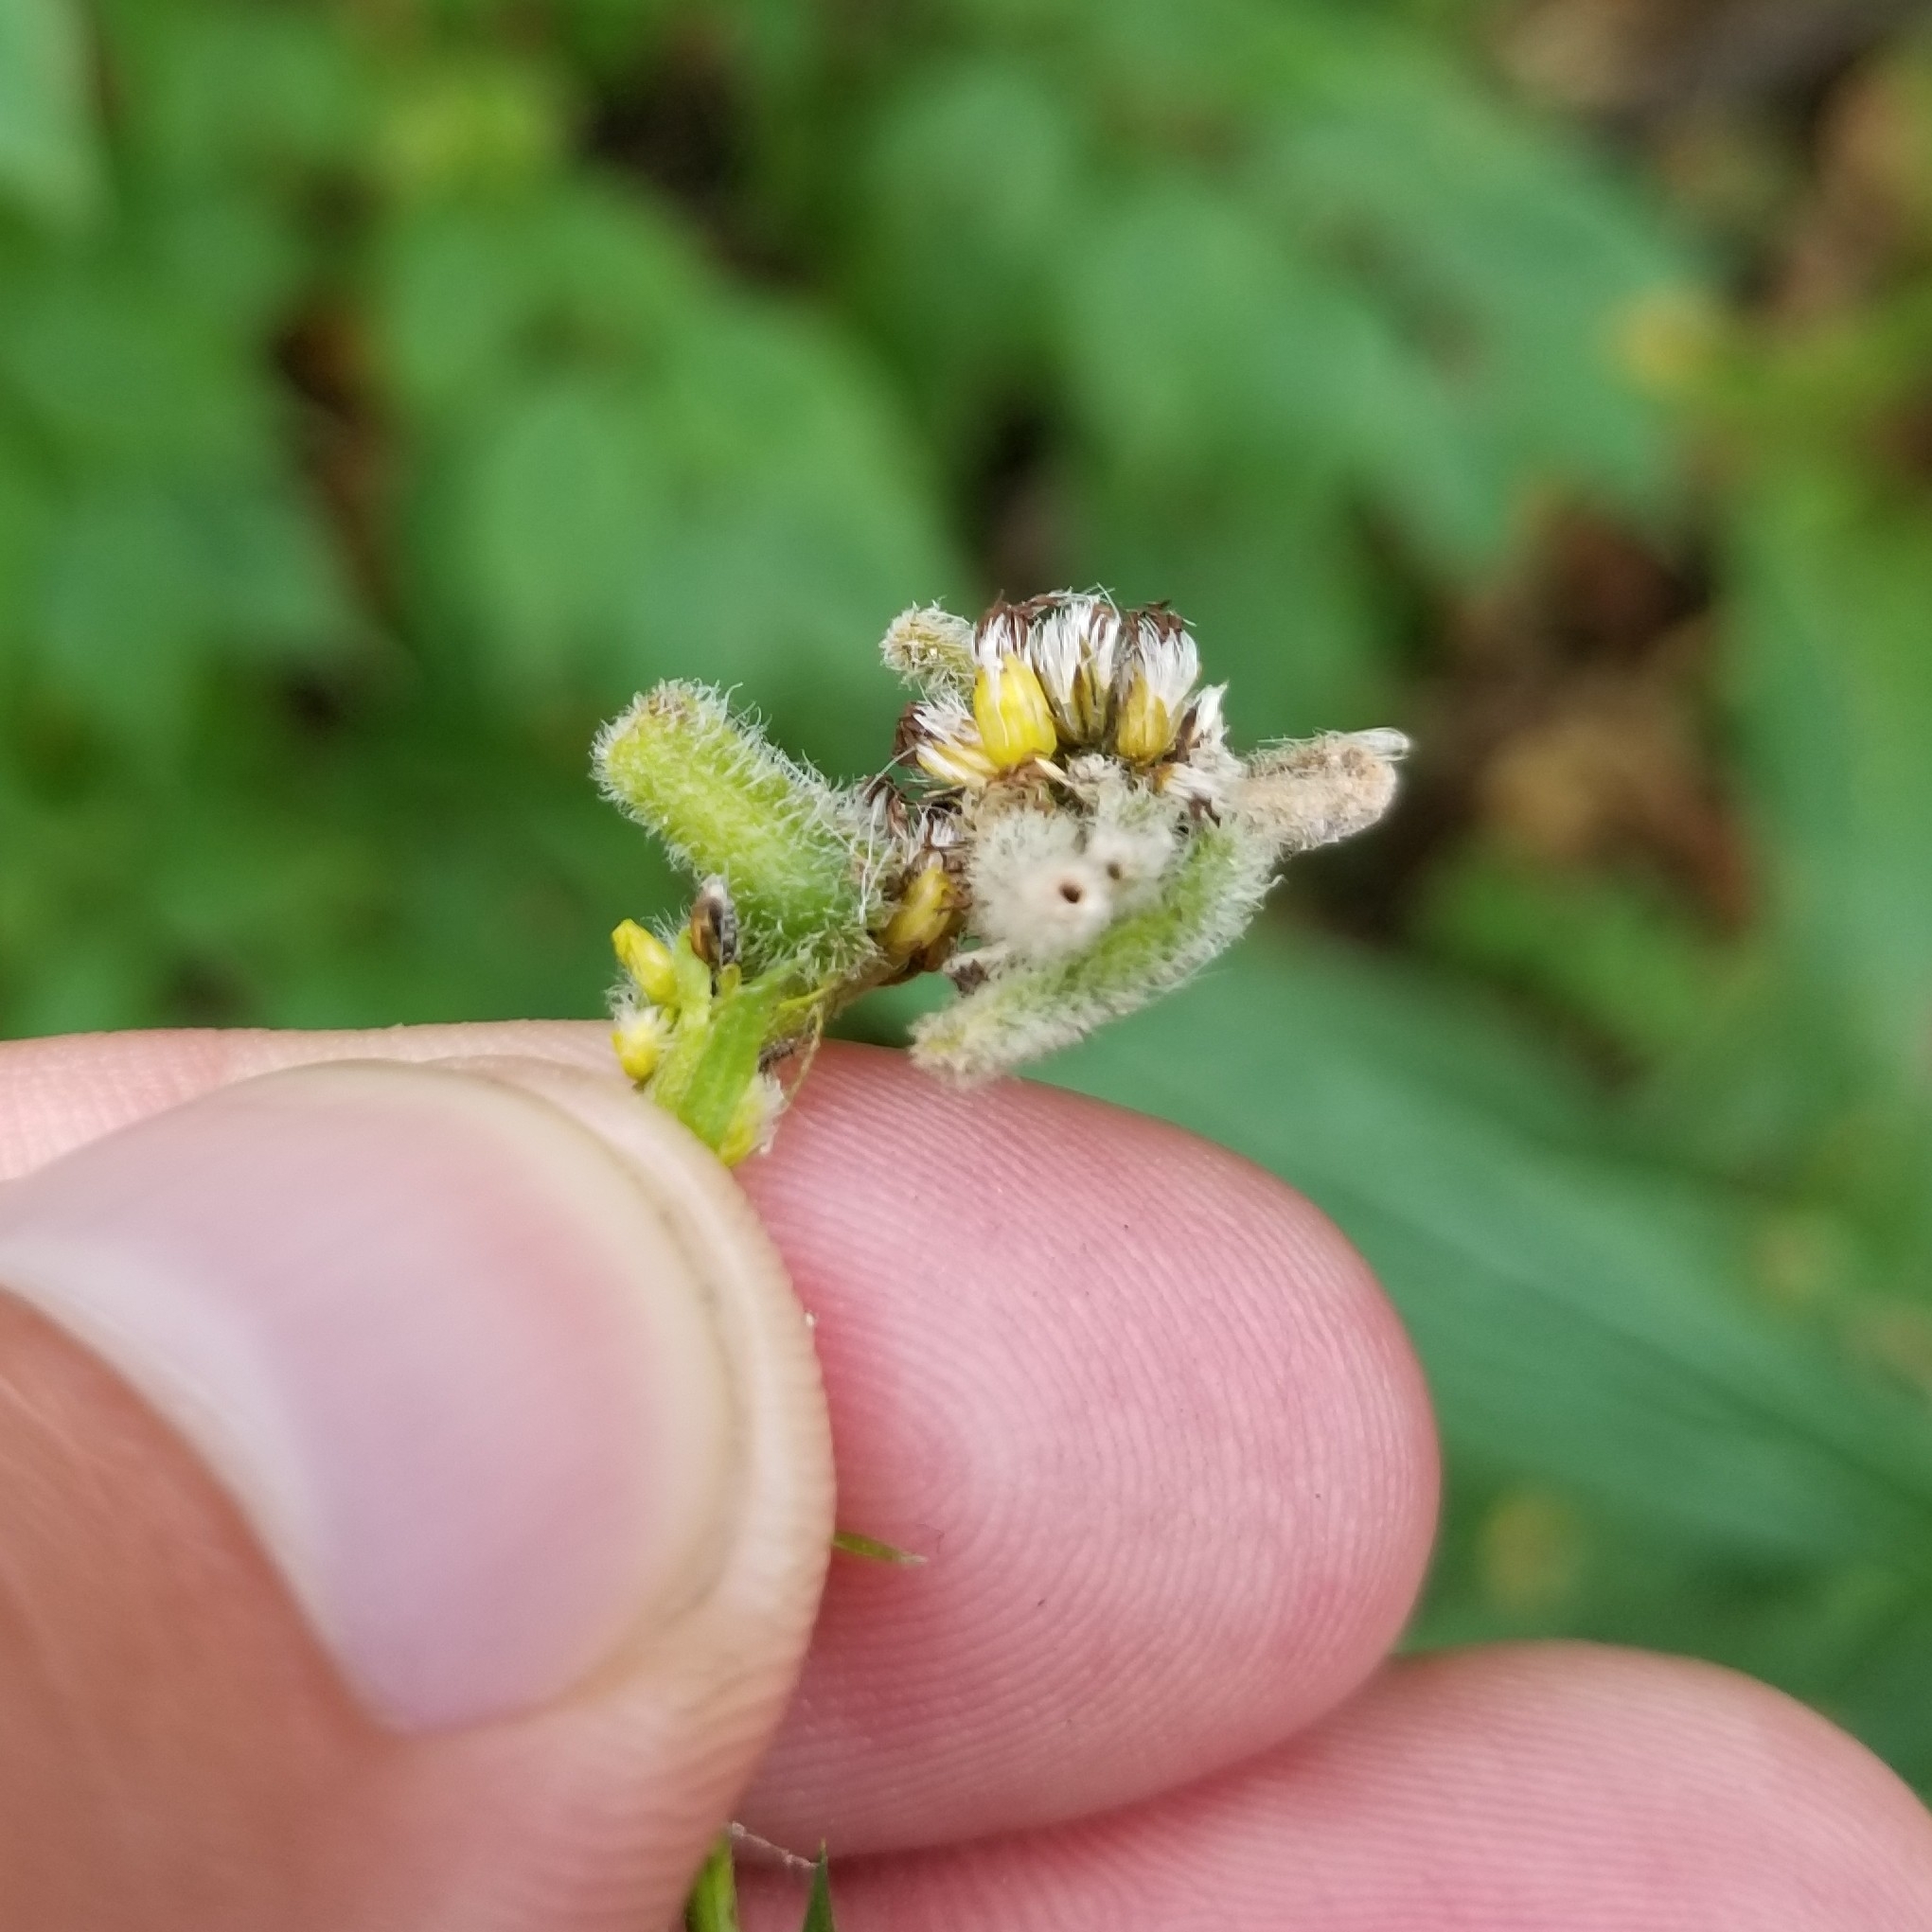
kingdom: Animalia
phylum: Arthropoda
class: Insecta
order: Diptera
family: Cecidomyiidae
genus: Rhopalomyia
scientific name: Rhopalomyia anthophila
